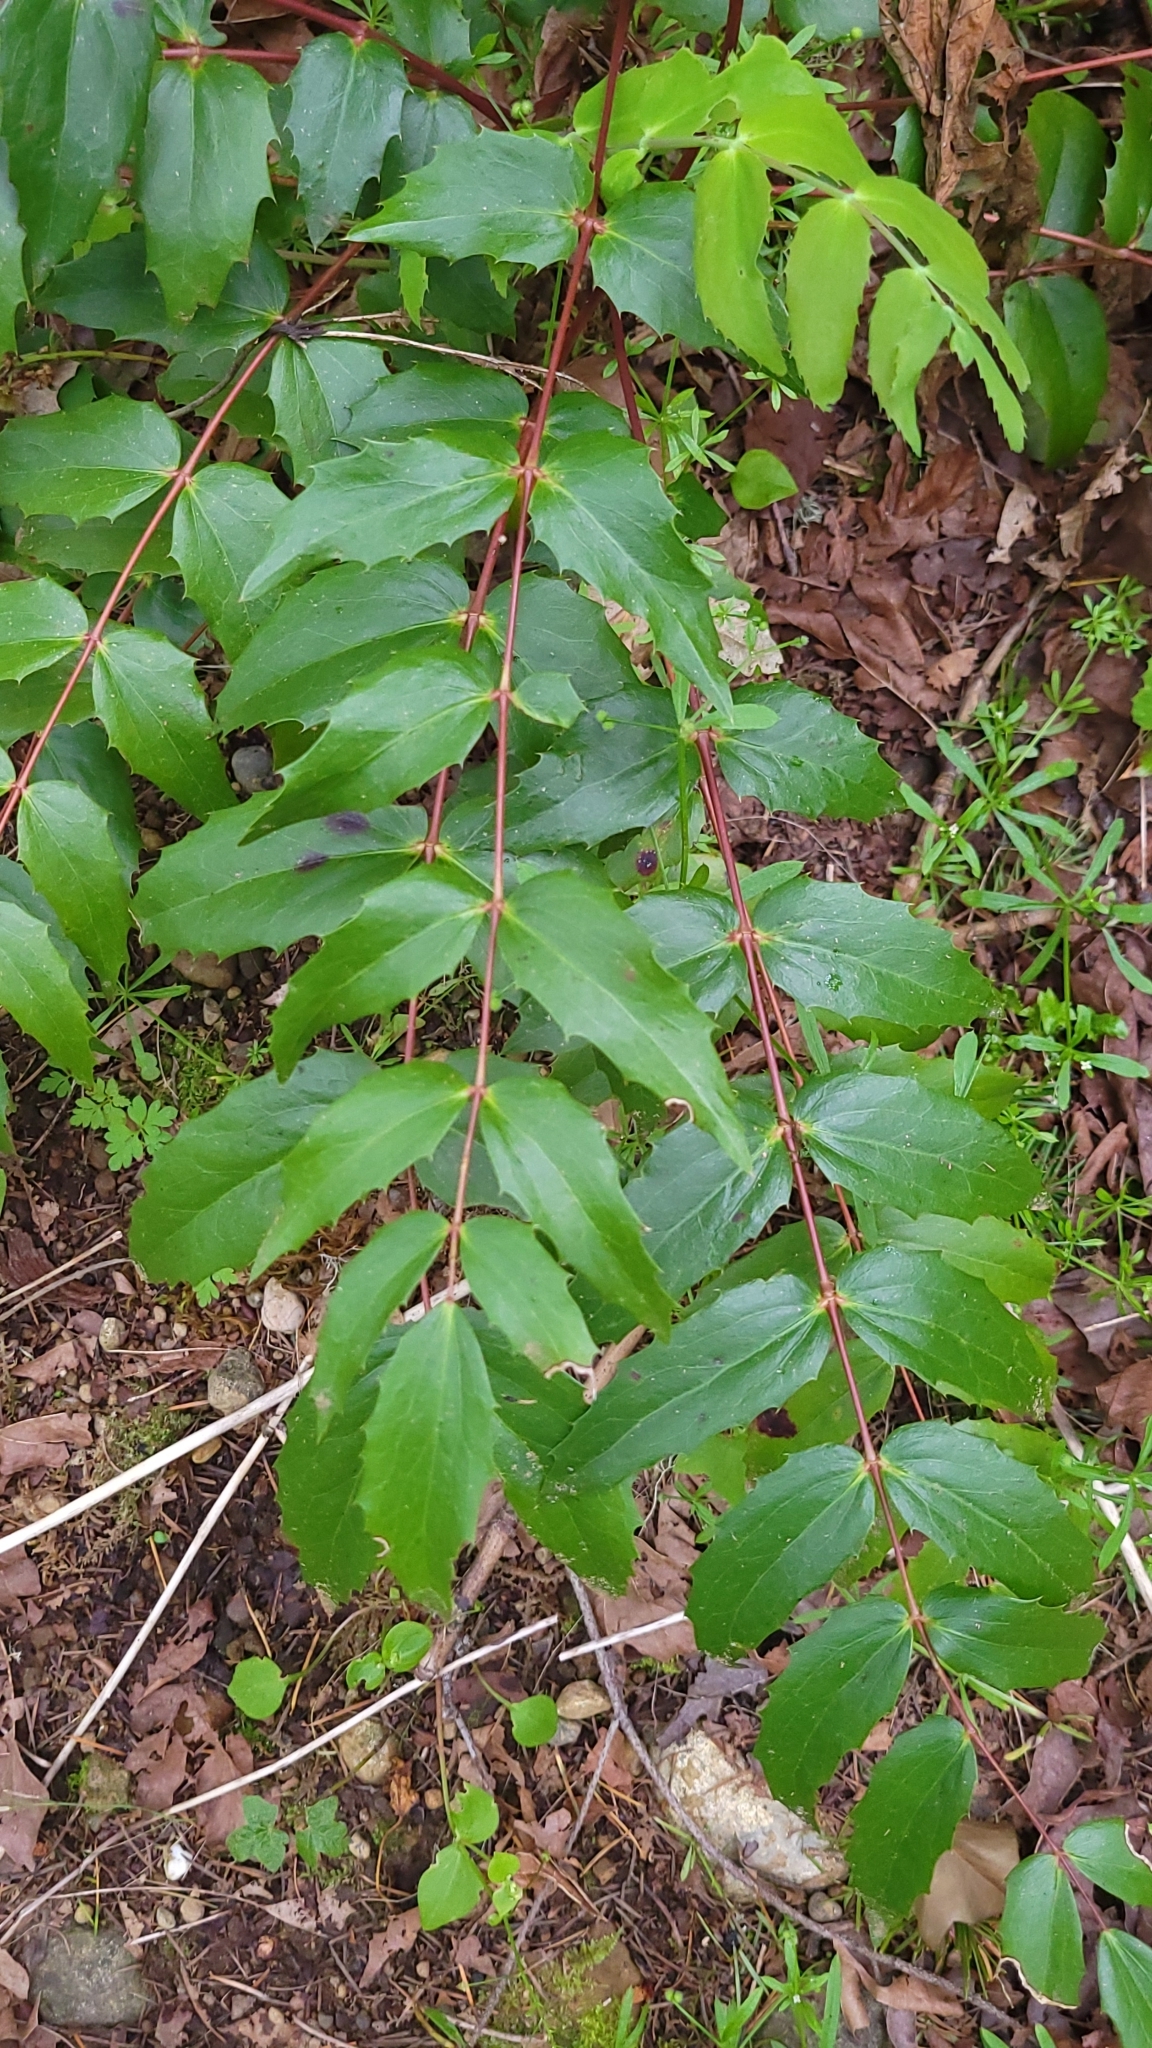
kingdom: Plantae
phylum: Tracheophyta
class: Magnoliopsida
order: Ranunculales
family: Berberidaceae
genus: Mahonia
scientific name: Mahonia nervosa
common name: Cascade oregon-grape
